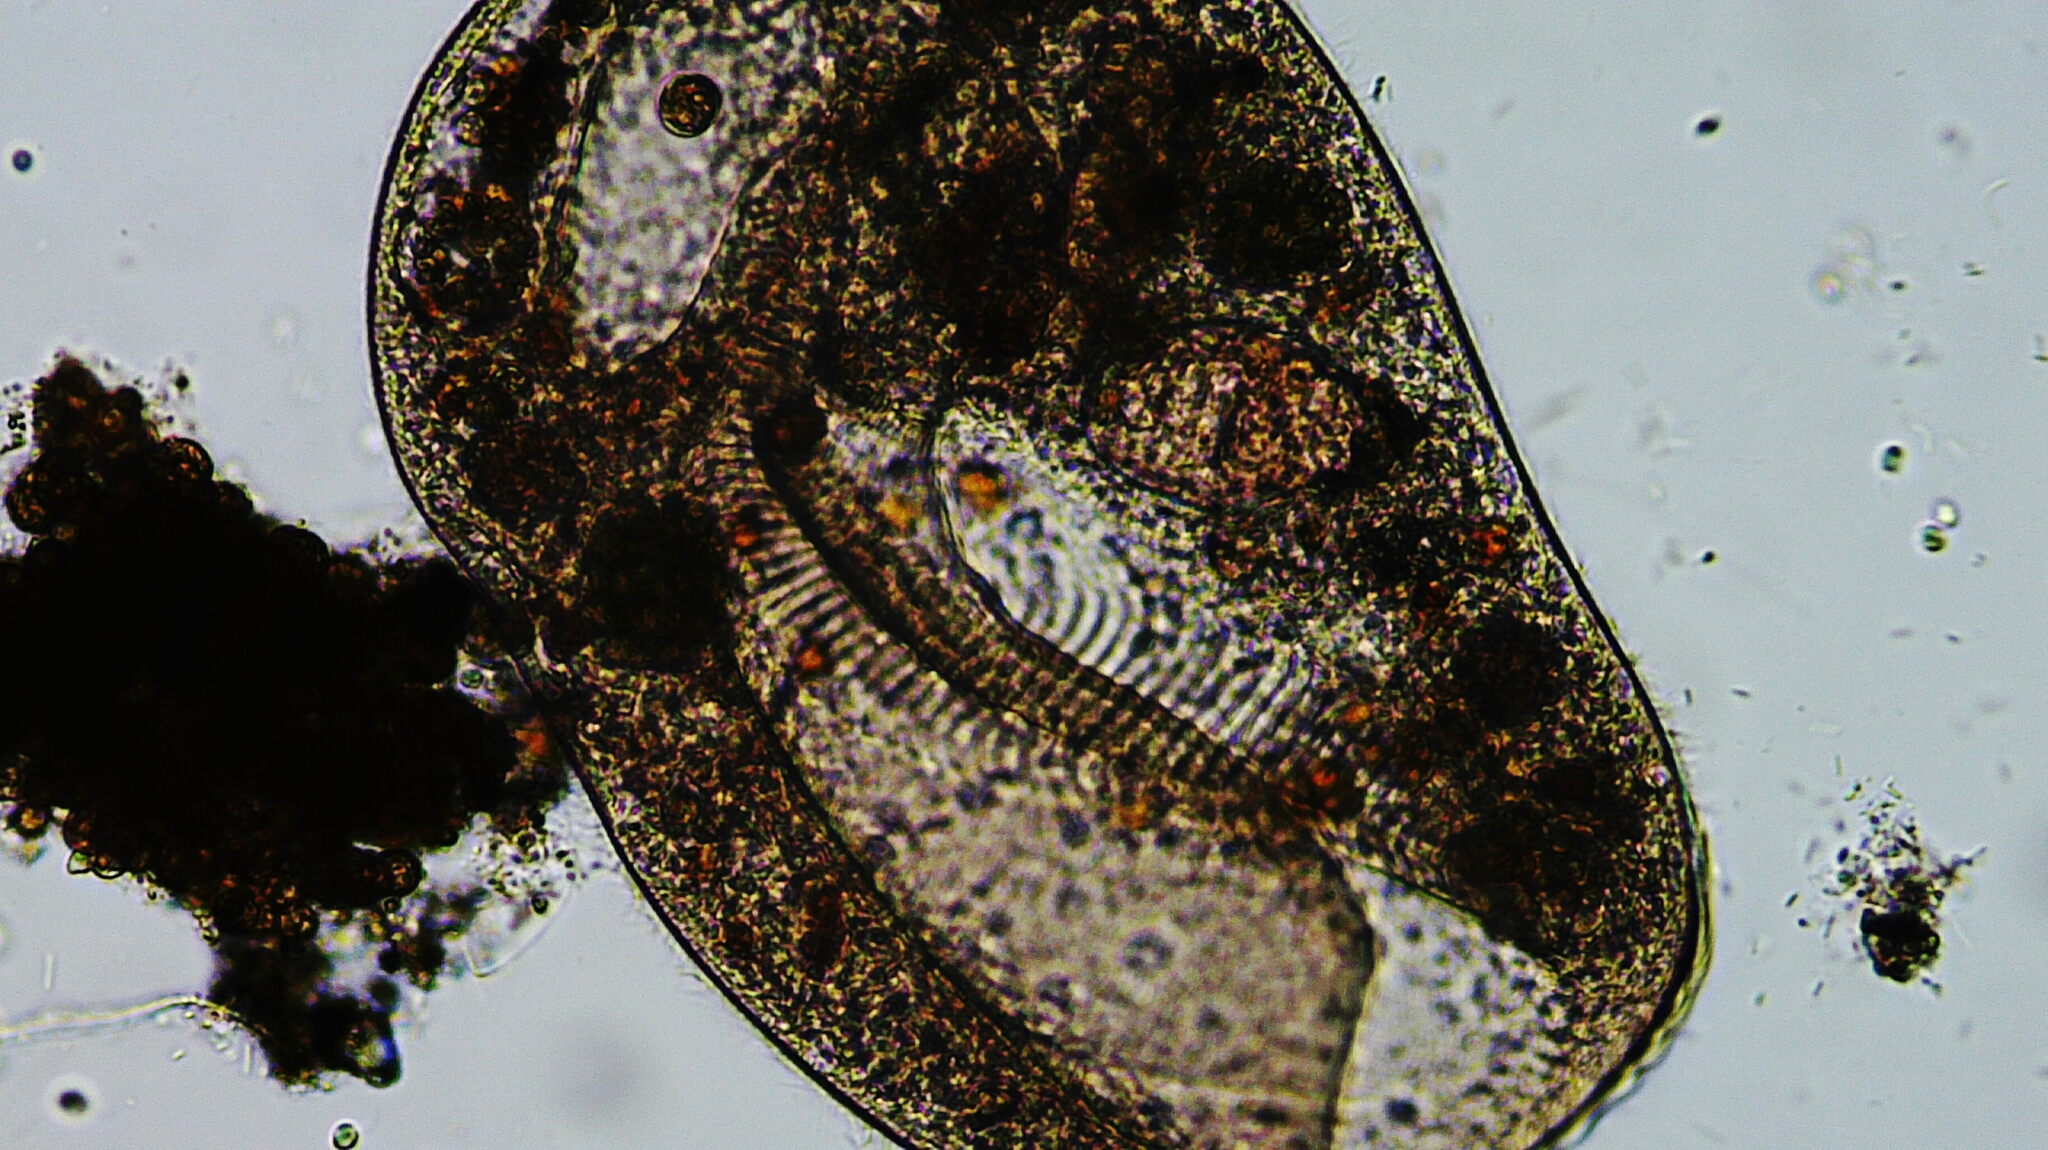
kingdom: Chromista
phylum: Ciliophora
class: Oligotrichea
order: Oligotrichida
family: Bilidiidae
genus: Bursaria
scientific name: Bursaria
